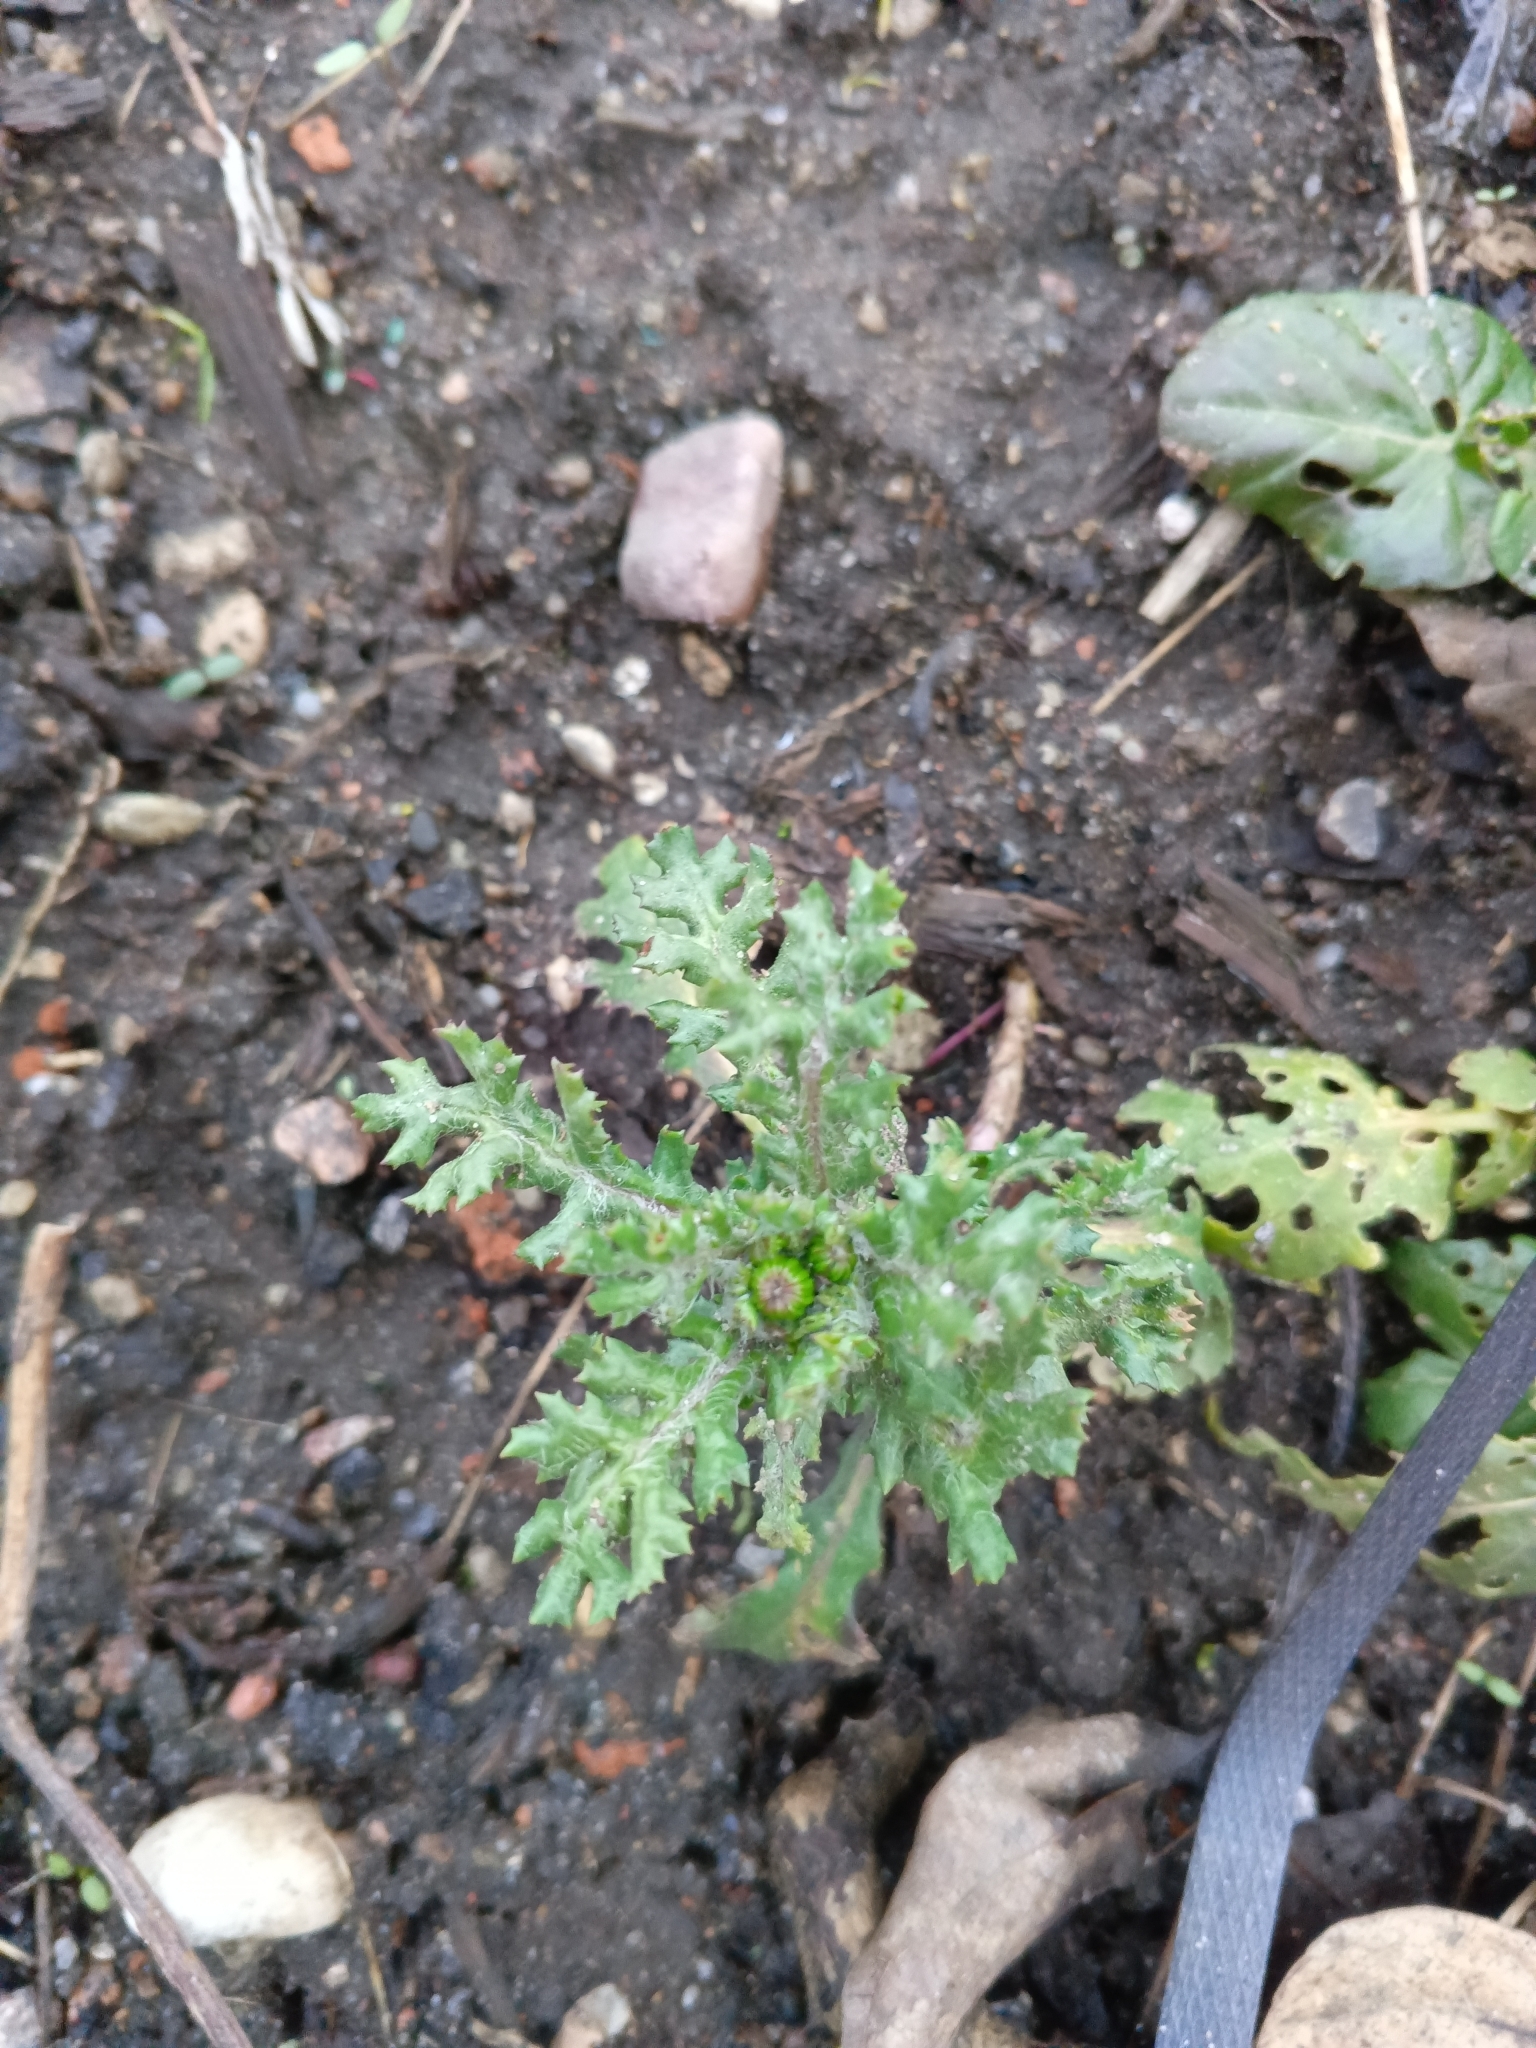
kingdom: Plantae
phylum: Tracheophyta
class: Magnoliopsida
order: Asterales
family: Asteraceae
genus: Senecio
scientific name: Senecio vulgaris
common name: Old-man-in-the-spring
